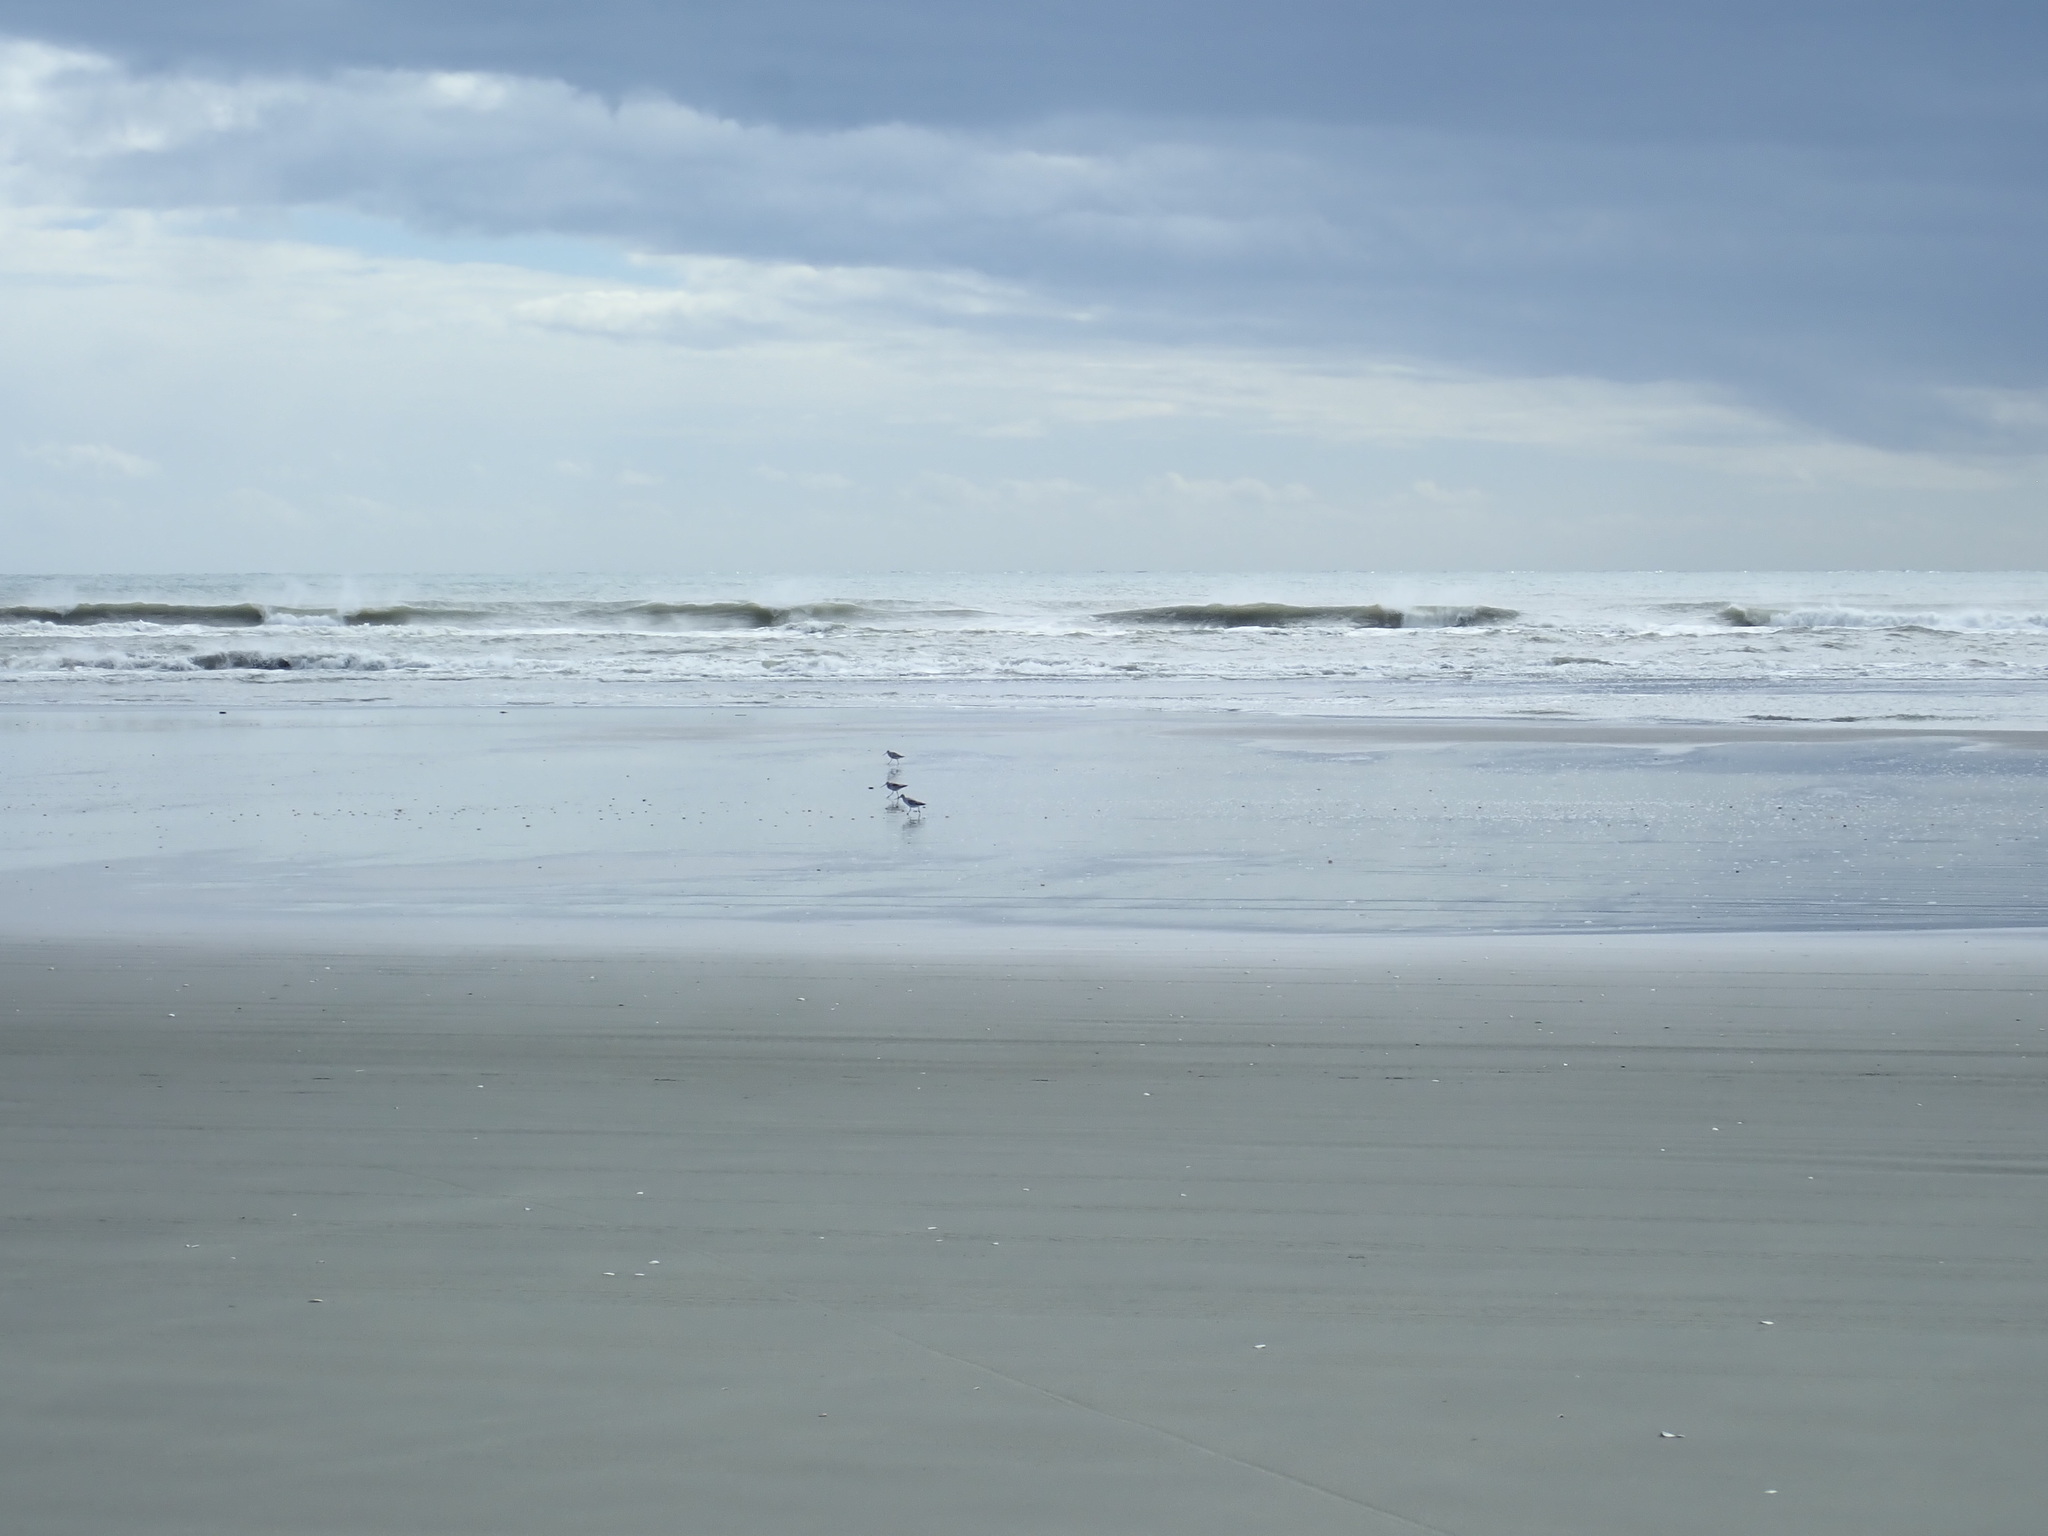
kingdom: Animalia
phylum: Chordata
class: Aves
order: Charadriiformes
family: Scolopacidae
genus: Limosa
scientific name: Limosa lapponica
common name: Bar-tailed godwit
